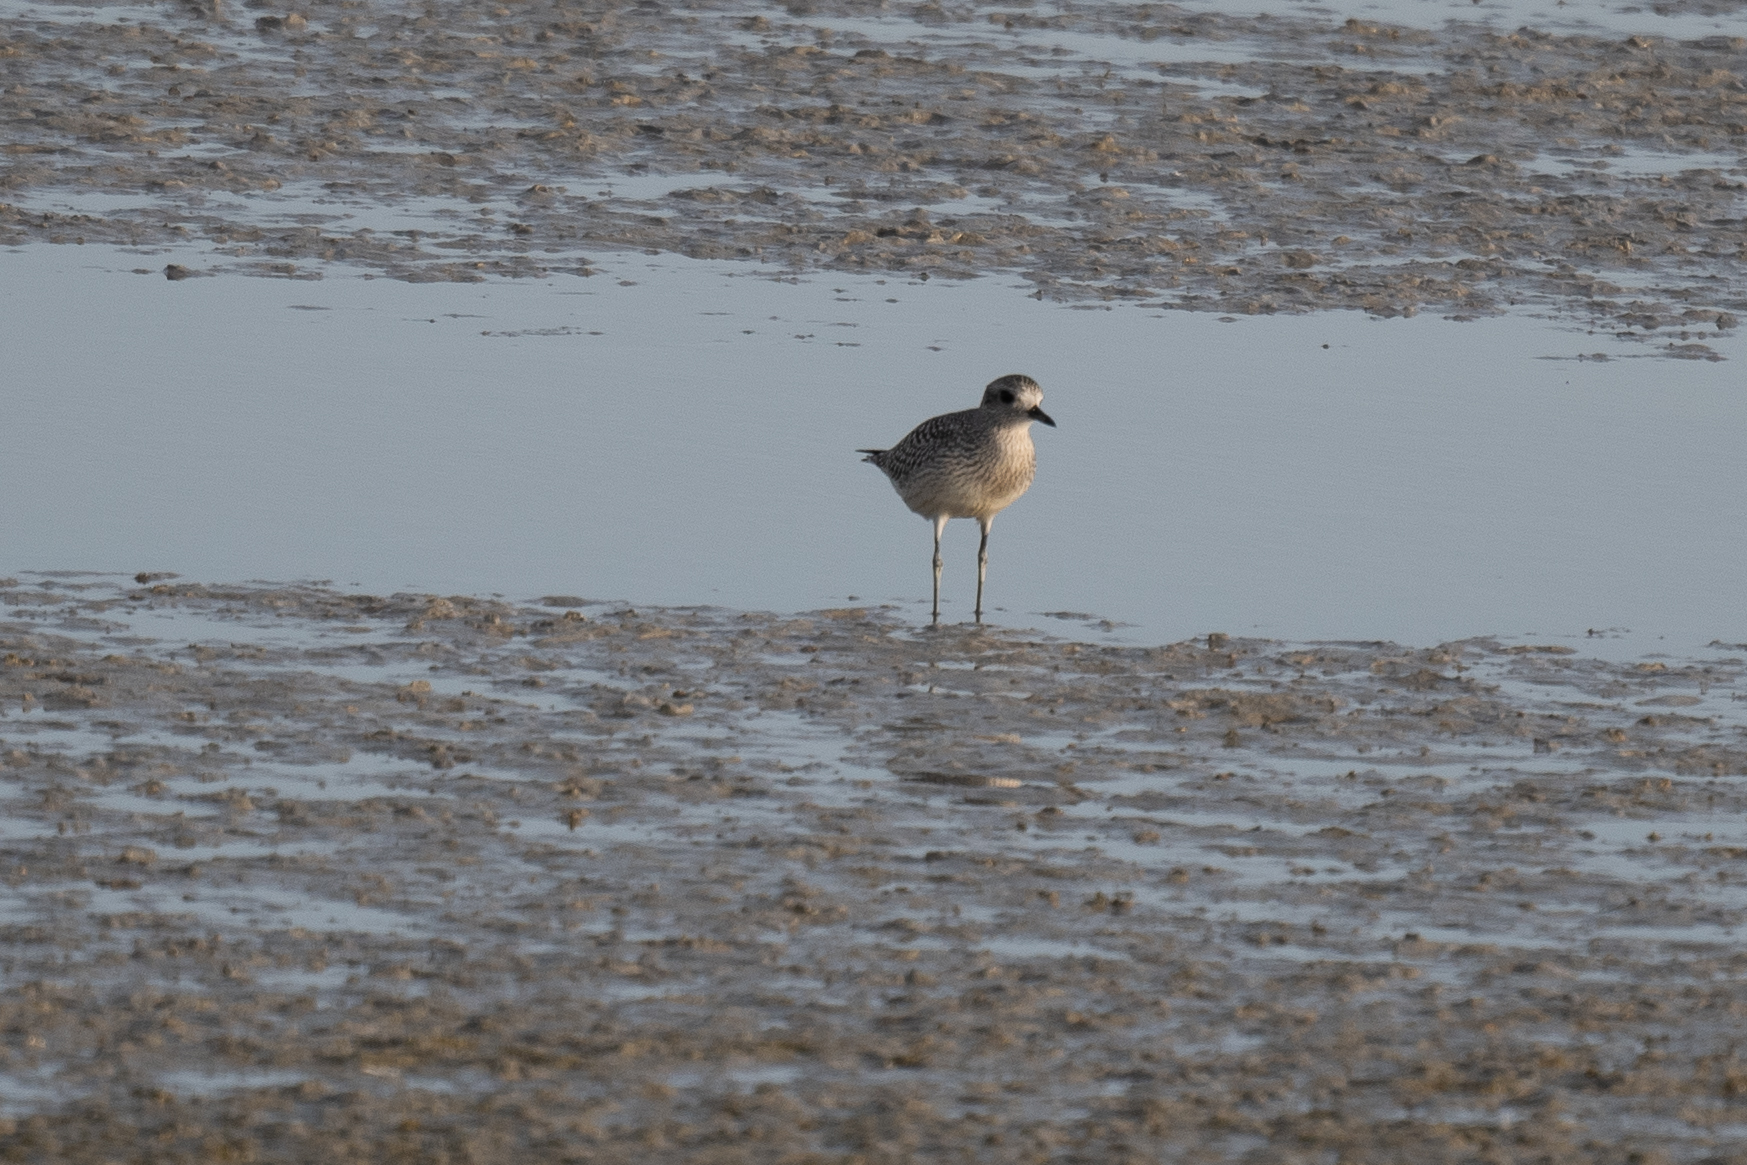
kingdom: Animalia
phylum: Chordata
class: Aves
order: Charadriiformes
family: Charadriidae
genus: Pluvialis
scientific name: Pluvialis squatarola
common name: Grey plover
